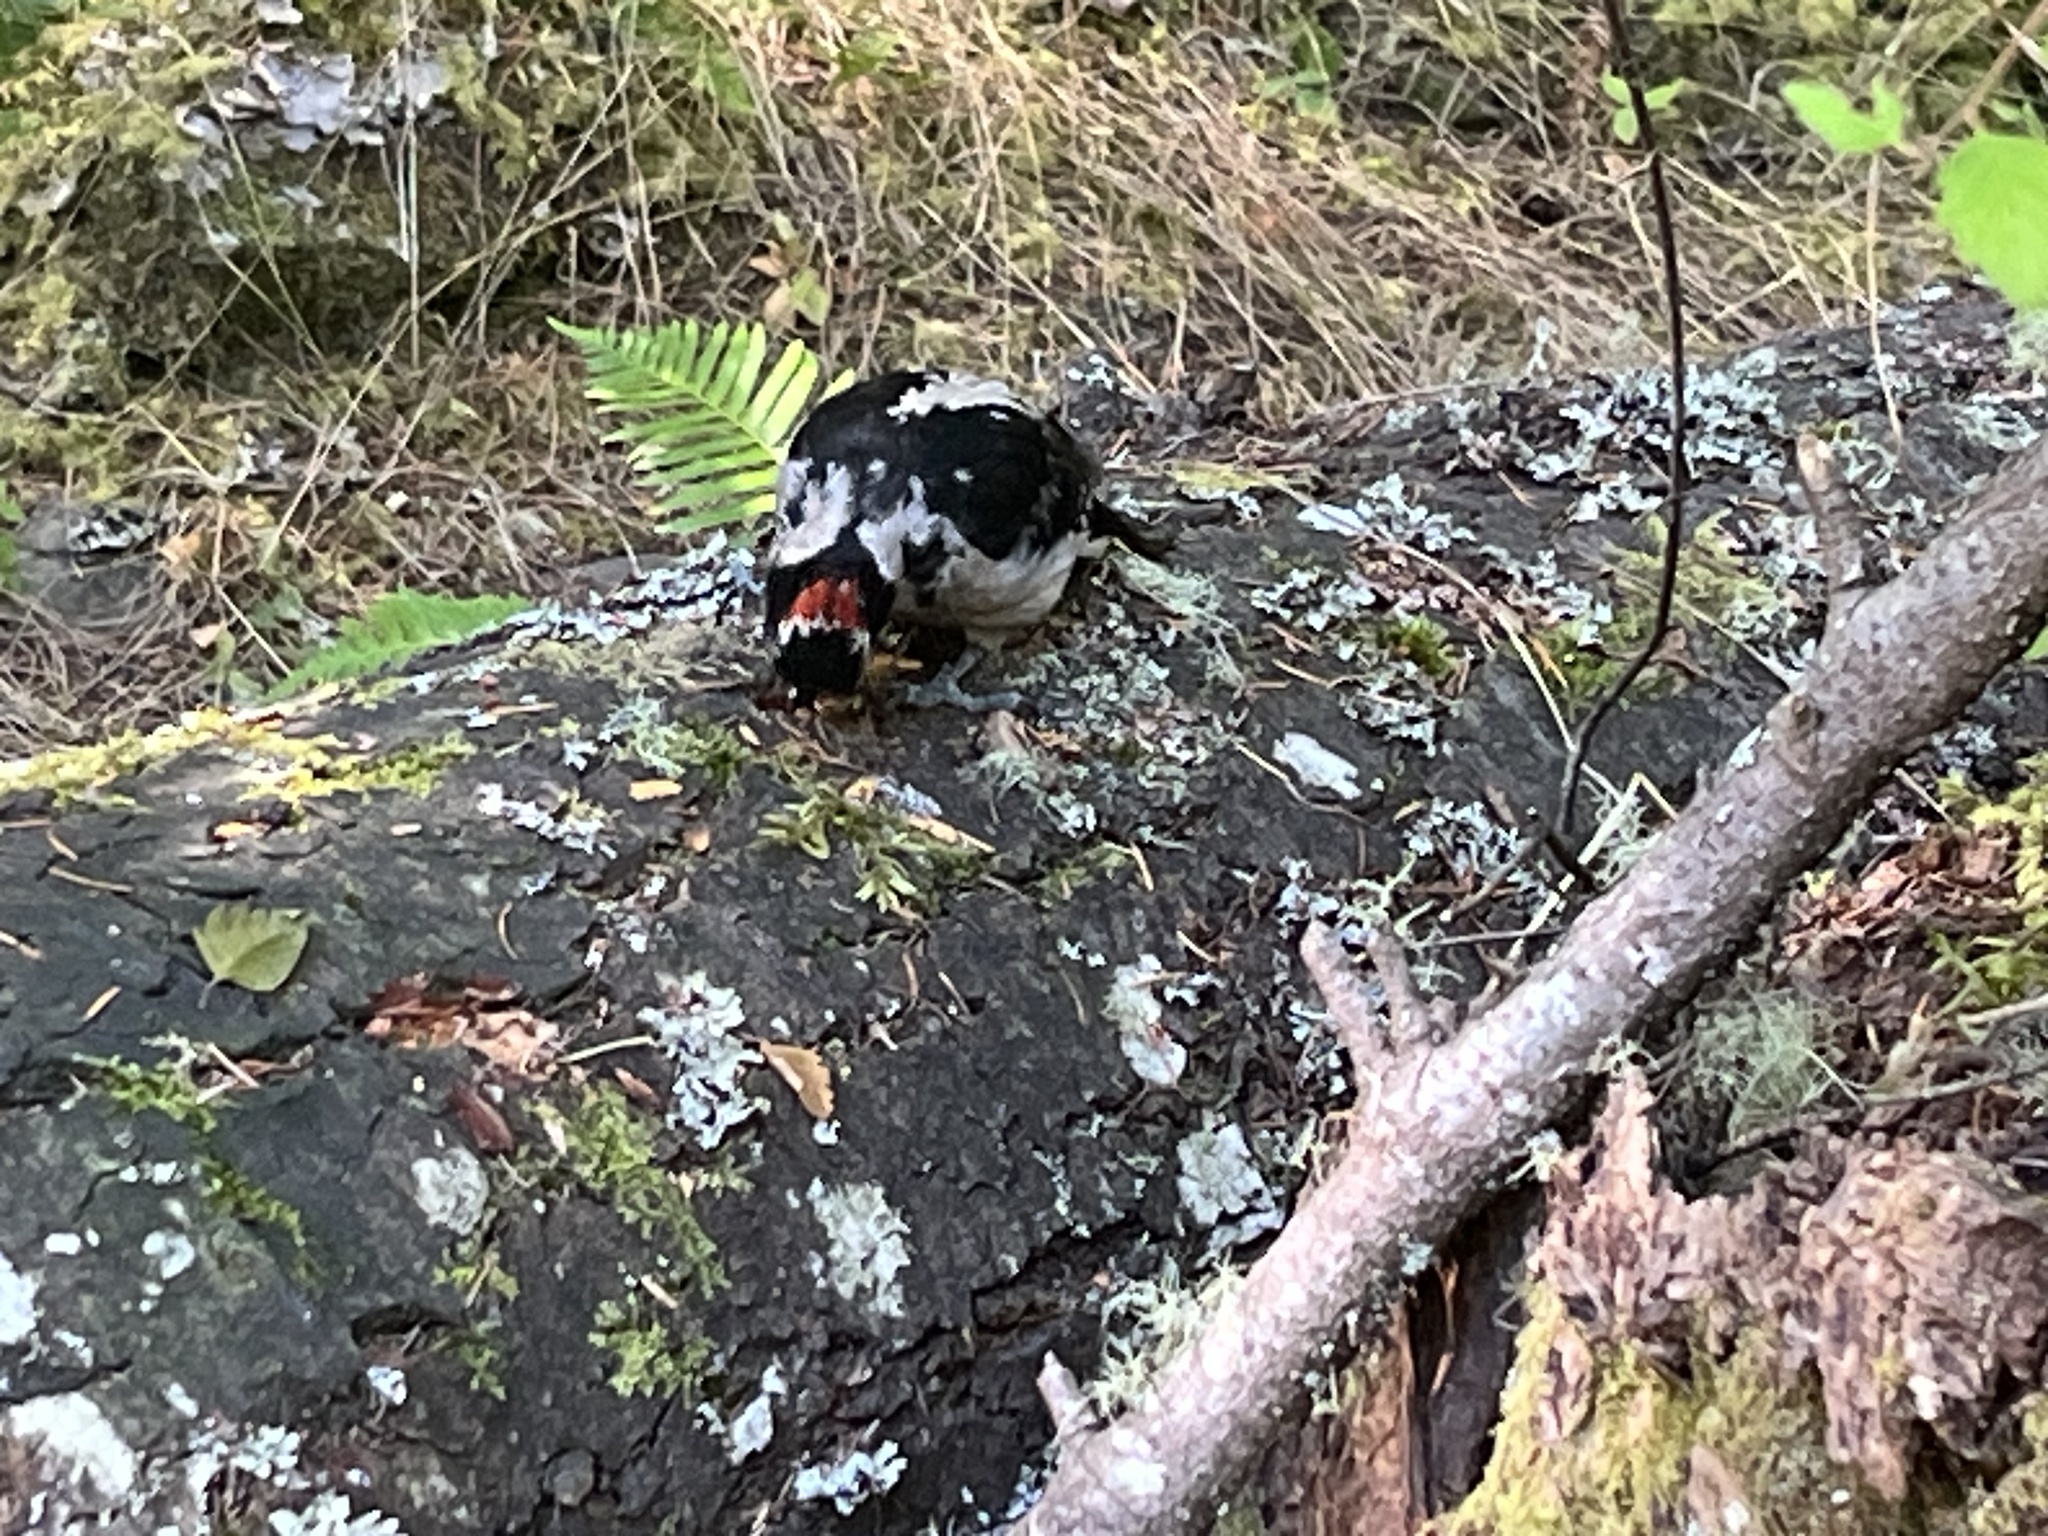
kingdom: Animalia
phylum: Chordata
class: Aves
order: Piciformes
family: Picidae
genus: Leuconotopicus
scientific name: Leuconotopicus villosus
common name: Hairy woodpecker
